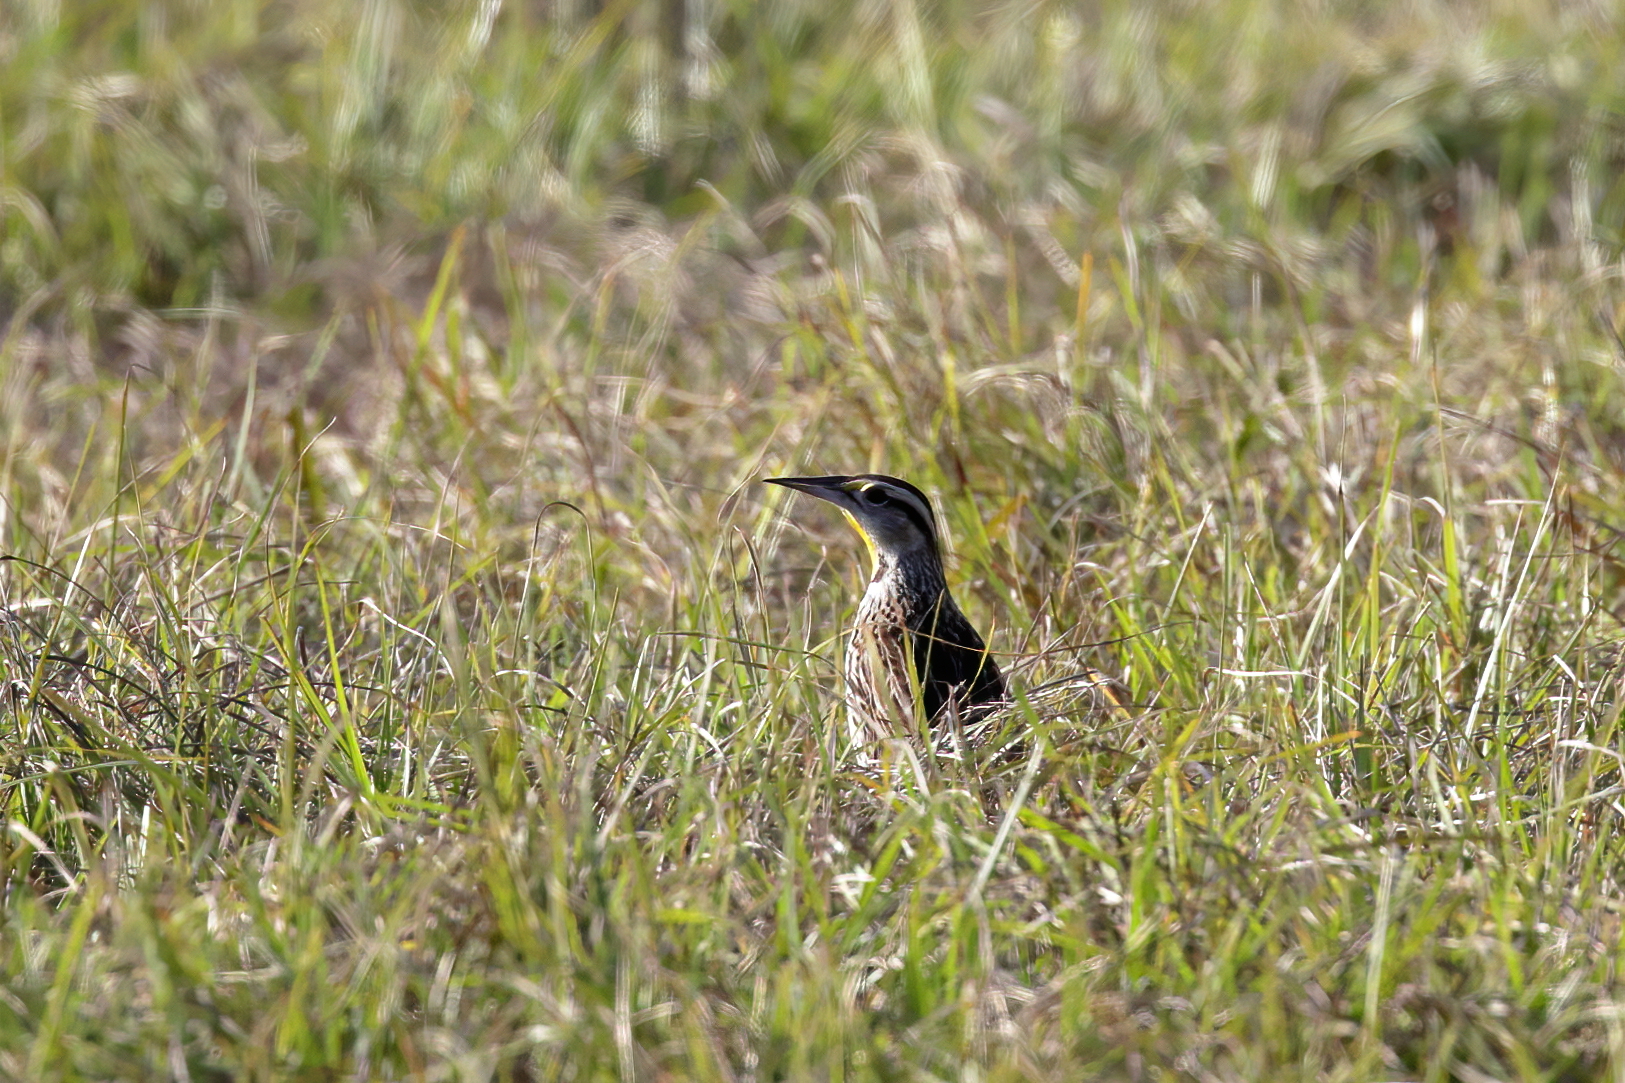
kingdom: Animalia
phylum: Chordata
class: Aves
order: Passeriformes
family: Icteridae
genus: Sturnella
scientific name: Sturnella magna
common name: Eastern meadowlark
